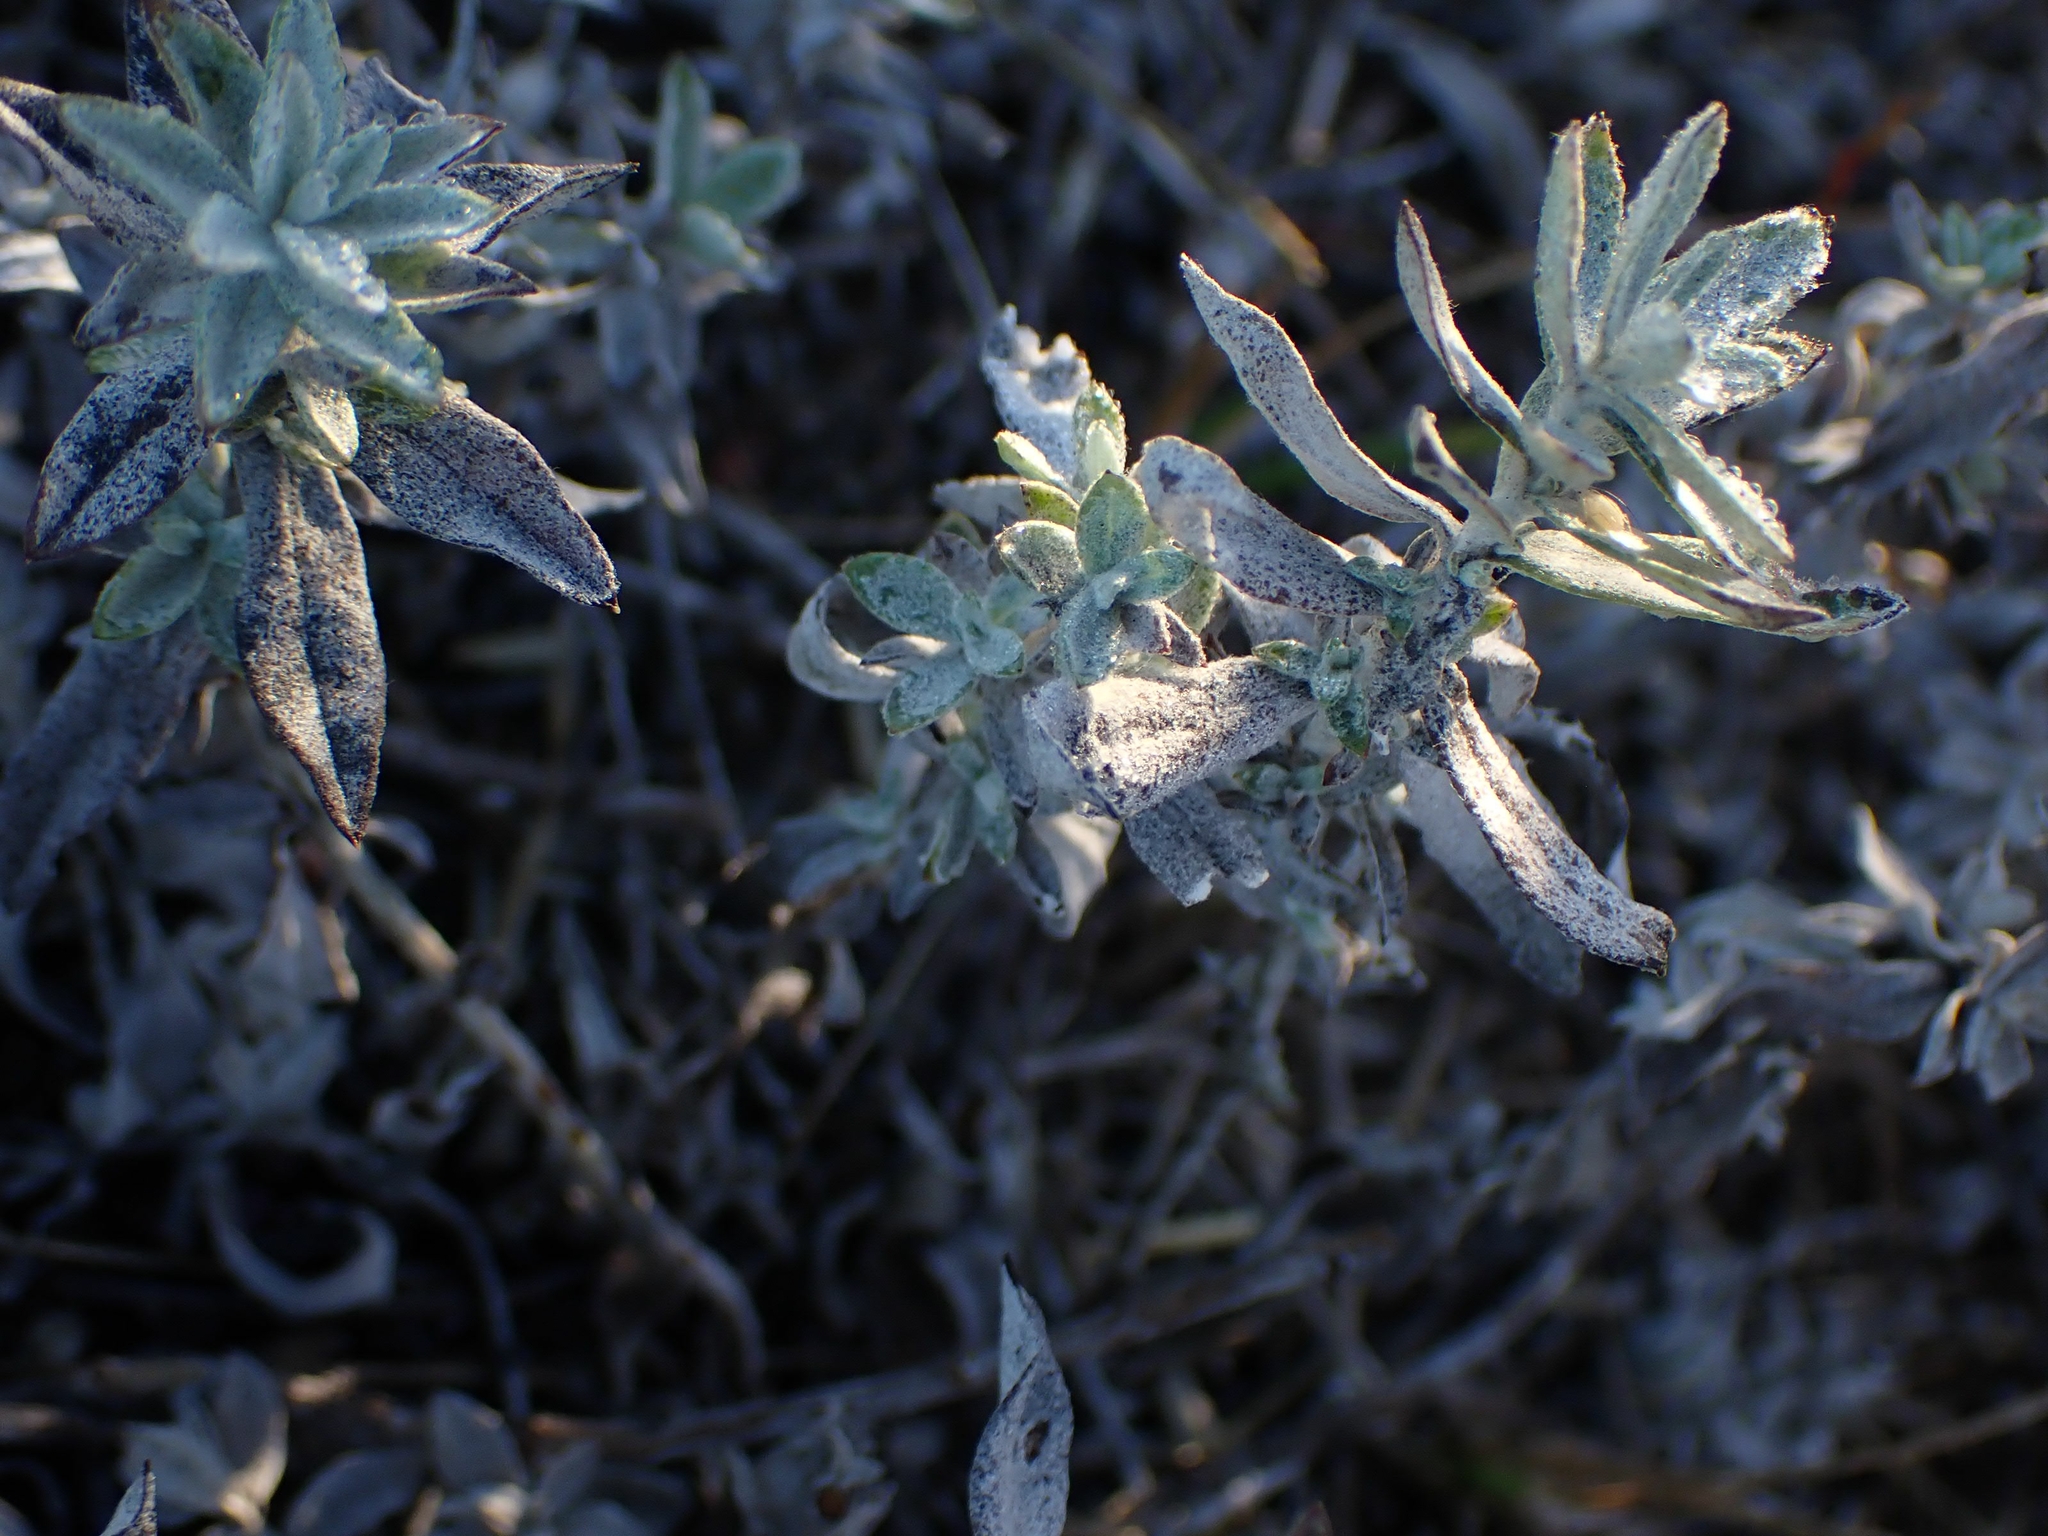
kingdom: Plantae
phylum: Tracheophyta
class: Magnoliopsida
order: Asterales
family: Asteraceae
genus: Artemisia
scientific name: Artemisia ludoviciana
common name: Western mugwort
